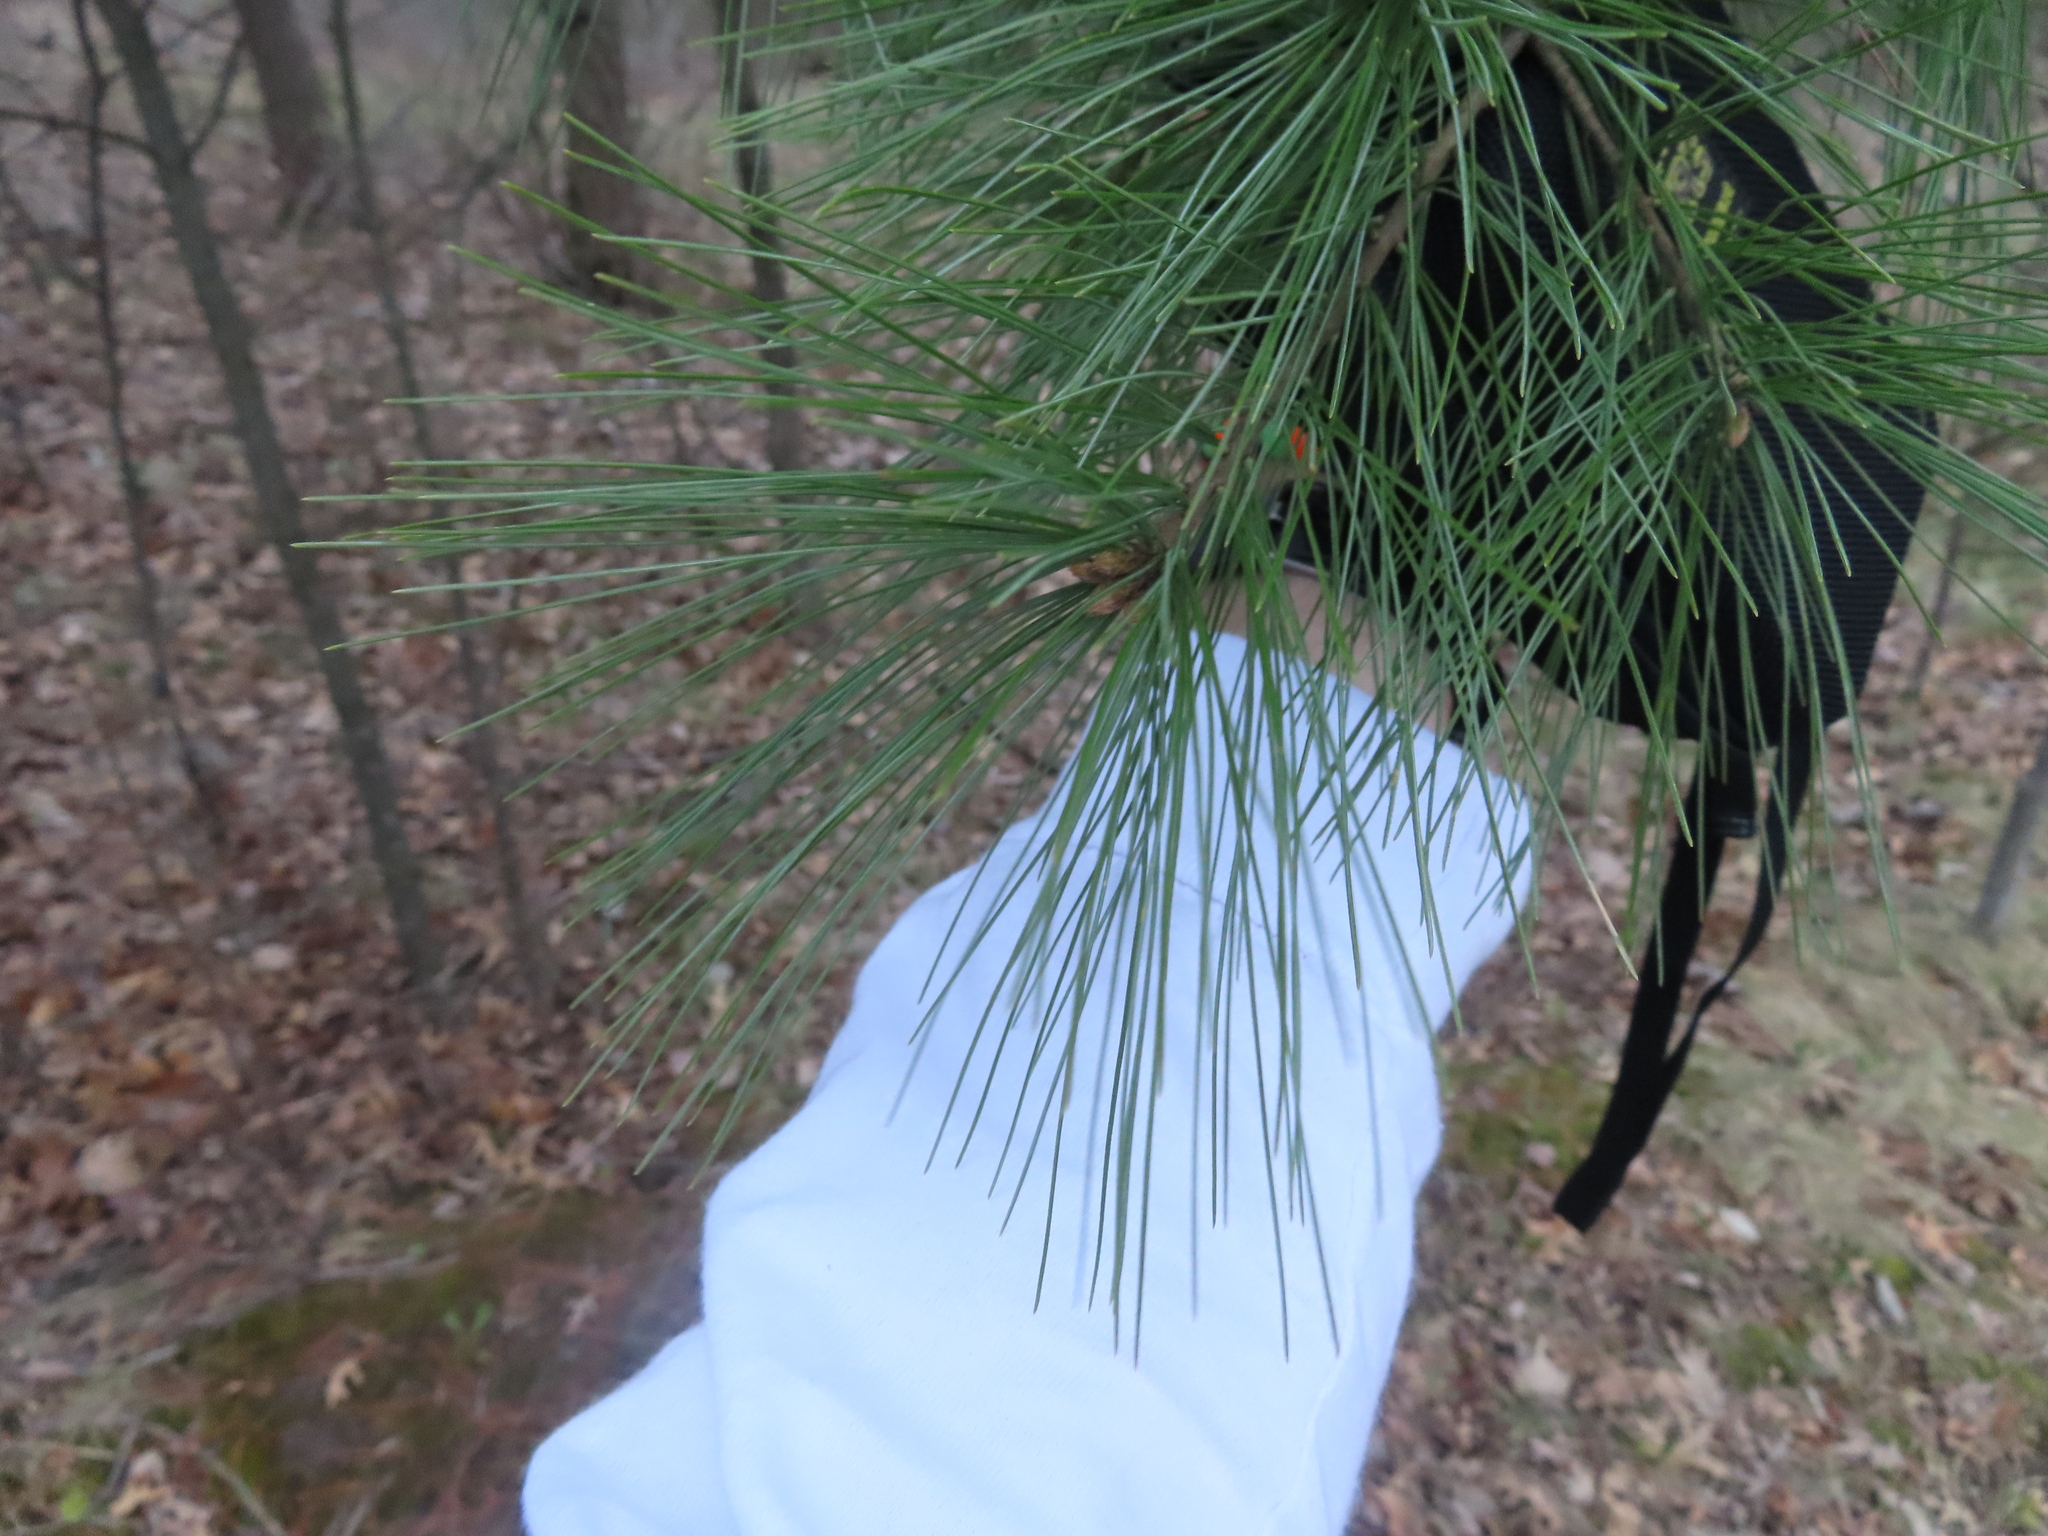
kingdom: Plantae
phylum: Tracheophyta
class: Pinopsida
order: Pinales
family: Pinaceae
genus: Pinus
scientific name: Pinus strobus
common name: Weymouth pine
